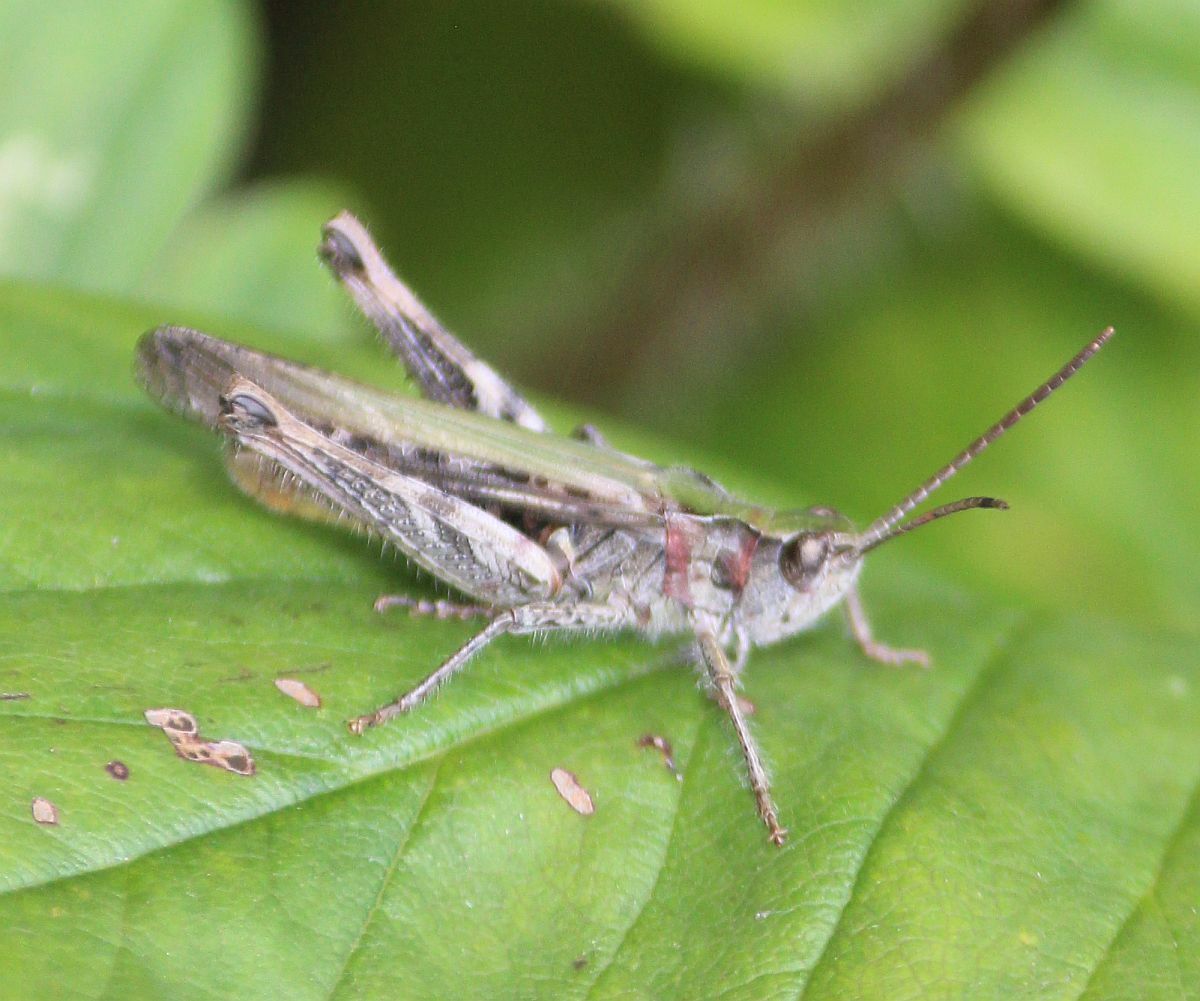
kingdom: Animalia
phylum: Arthropoda
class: Insecta
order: Orthoptera
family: Acrididae
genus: Chorthippus
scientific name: Chorthippus brunneus
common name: Field grasshopper
